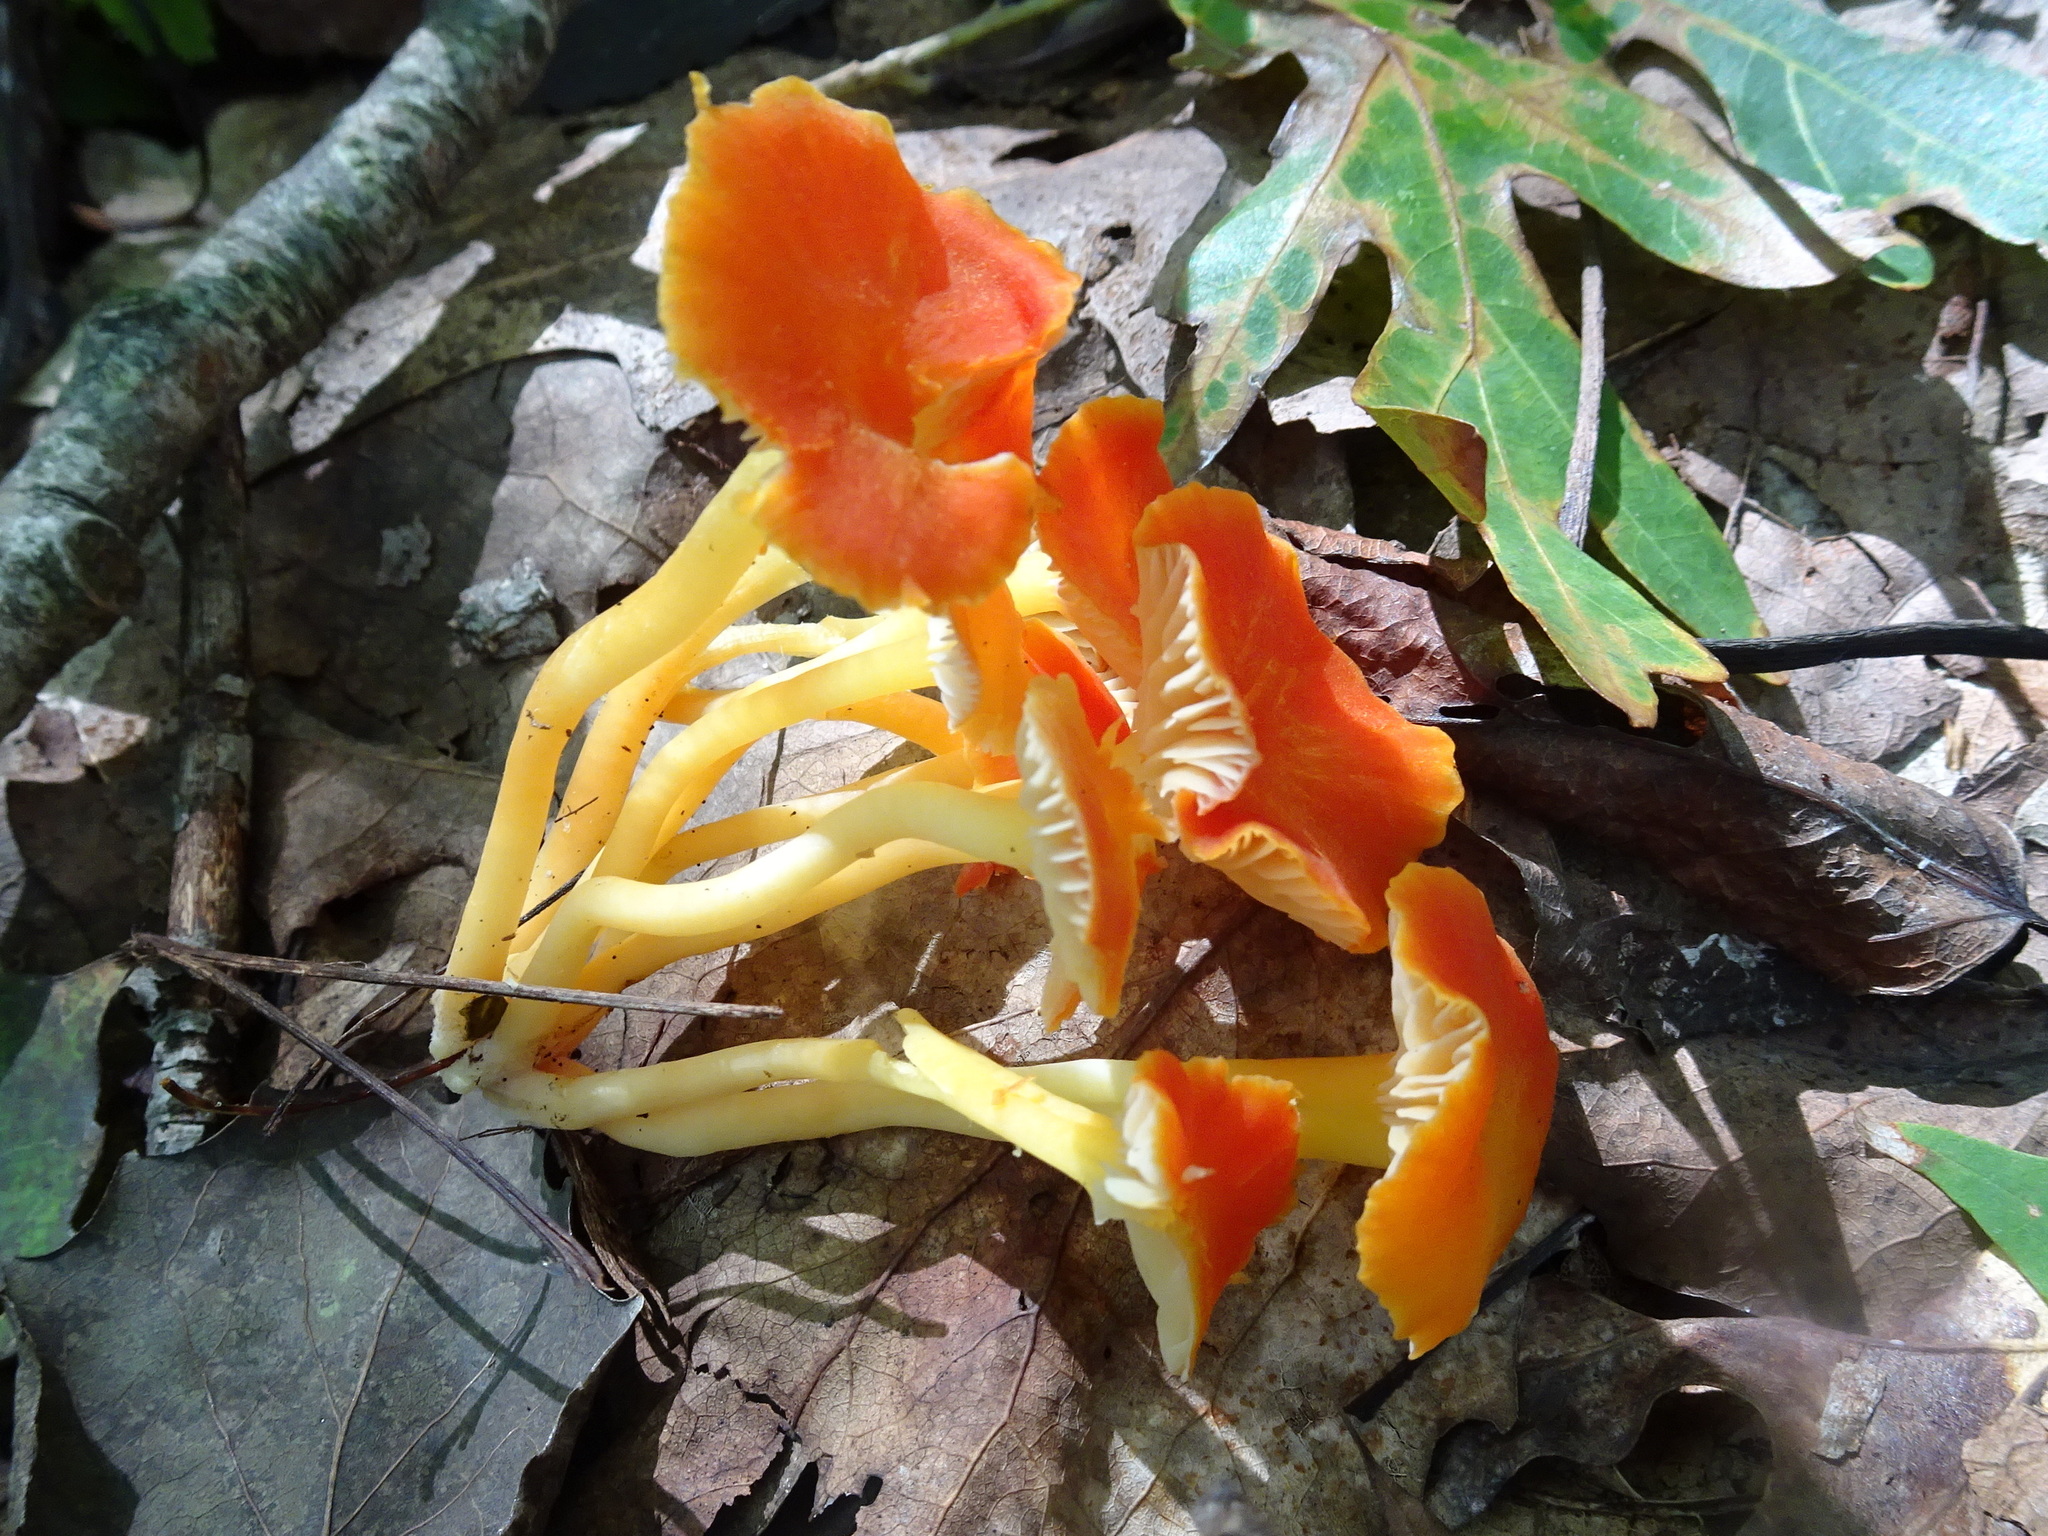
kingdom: Fungi
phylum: Basidiomycota
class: Agaricomycetes
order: Agaricales
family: Hygrophoraceae
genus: Hygrocybe
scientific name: Hygrocybe cantharellus
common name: Goblet waxcap
